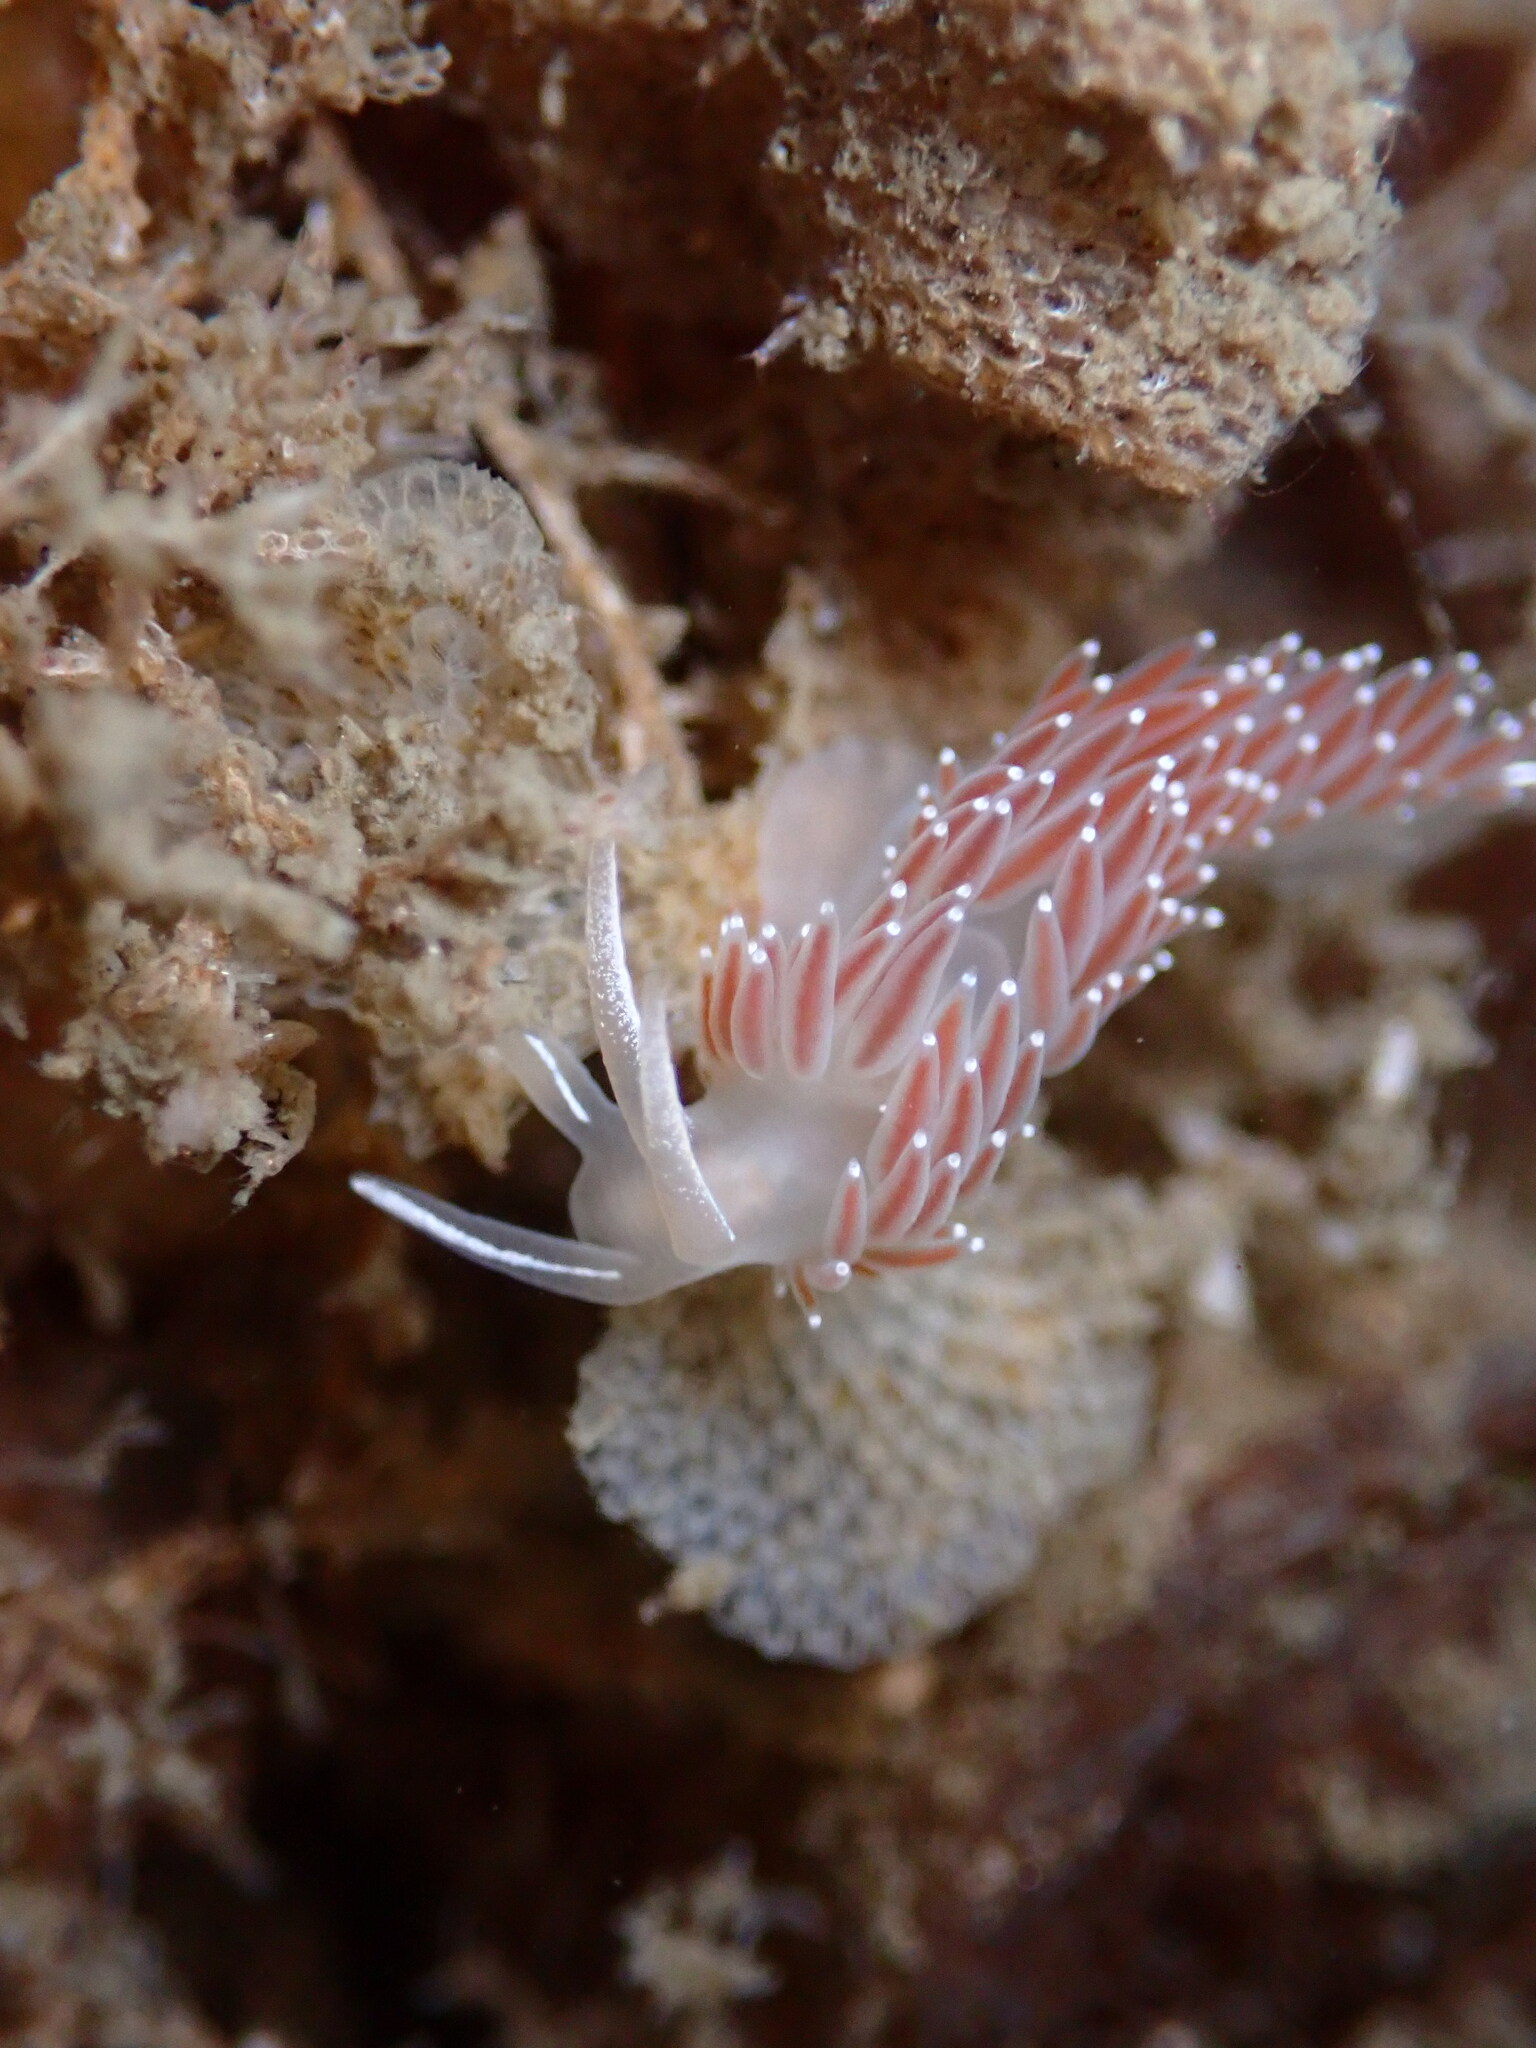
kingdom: Animalia
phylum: Mollusca
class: Gastropoda
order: Nudibranchia
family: Coryphellidae
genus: Coryphella
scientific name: Coryphella verrucosa
